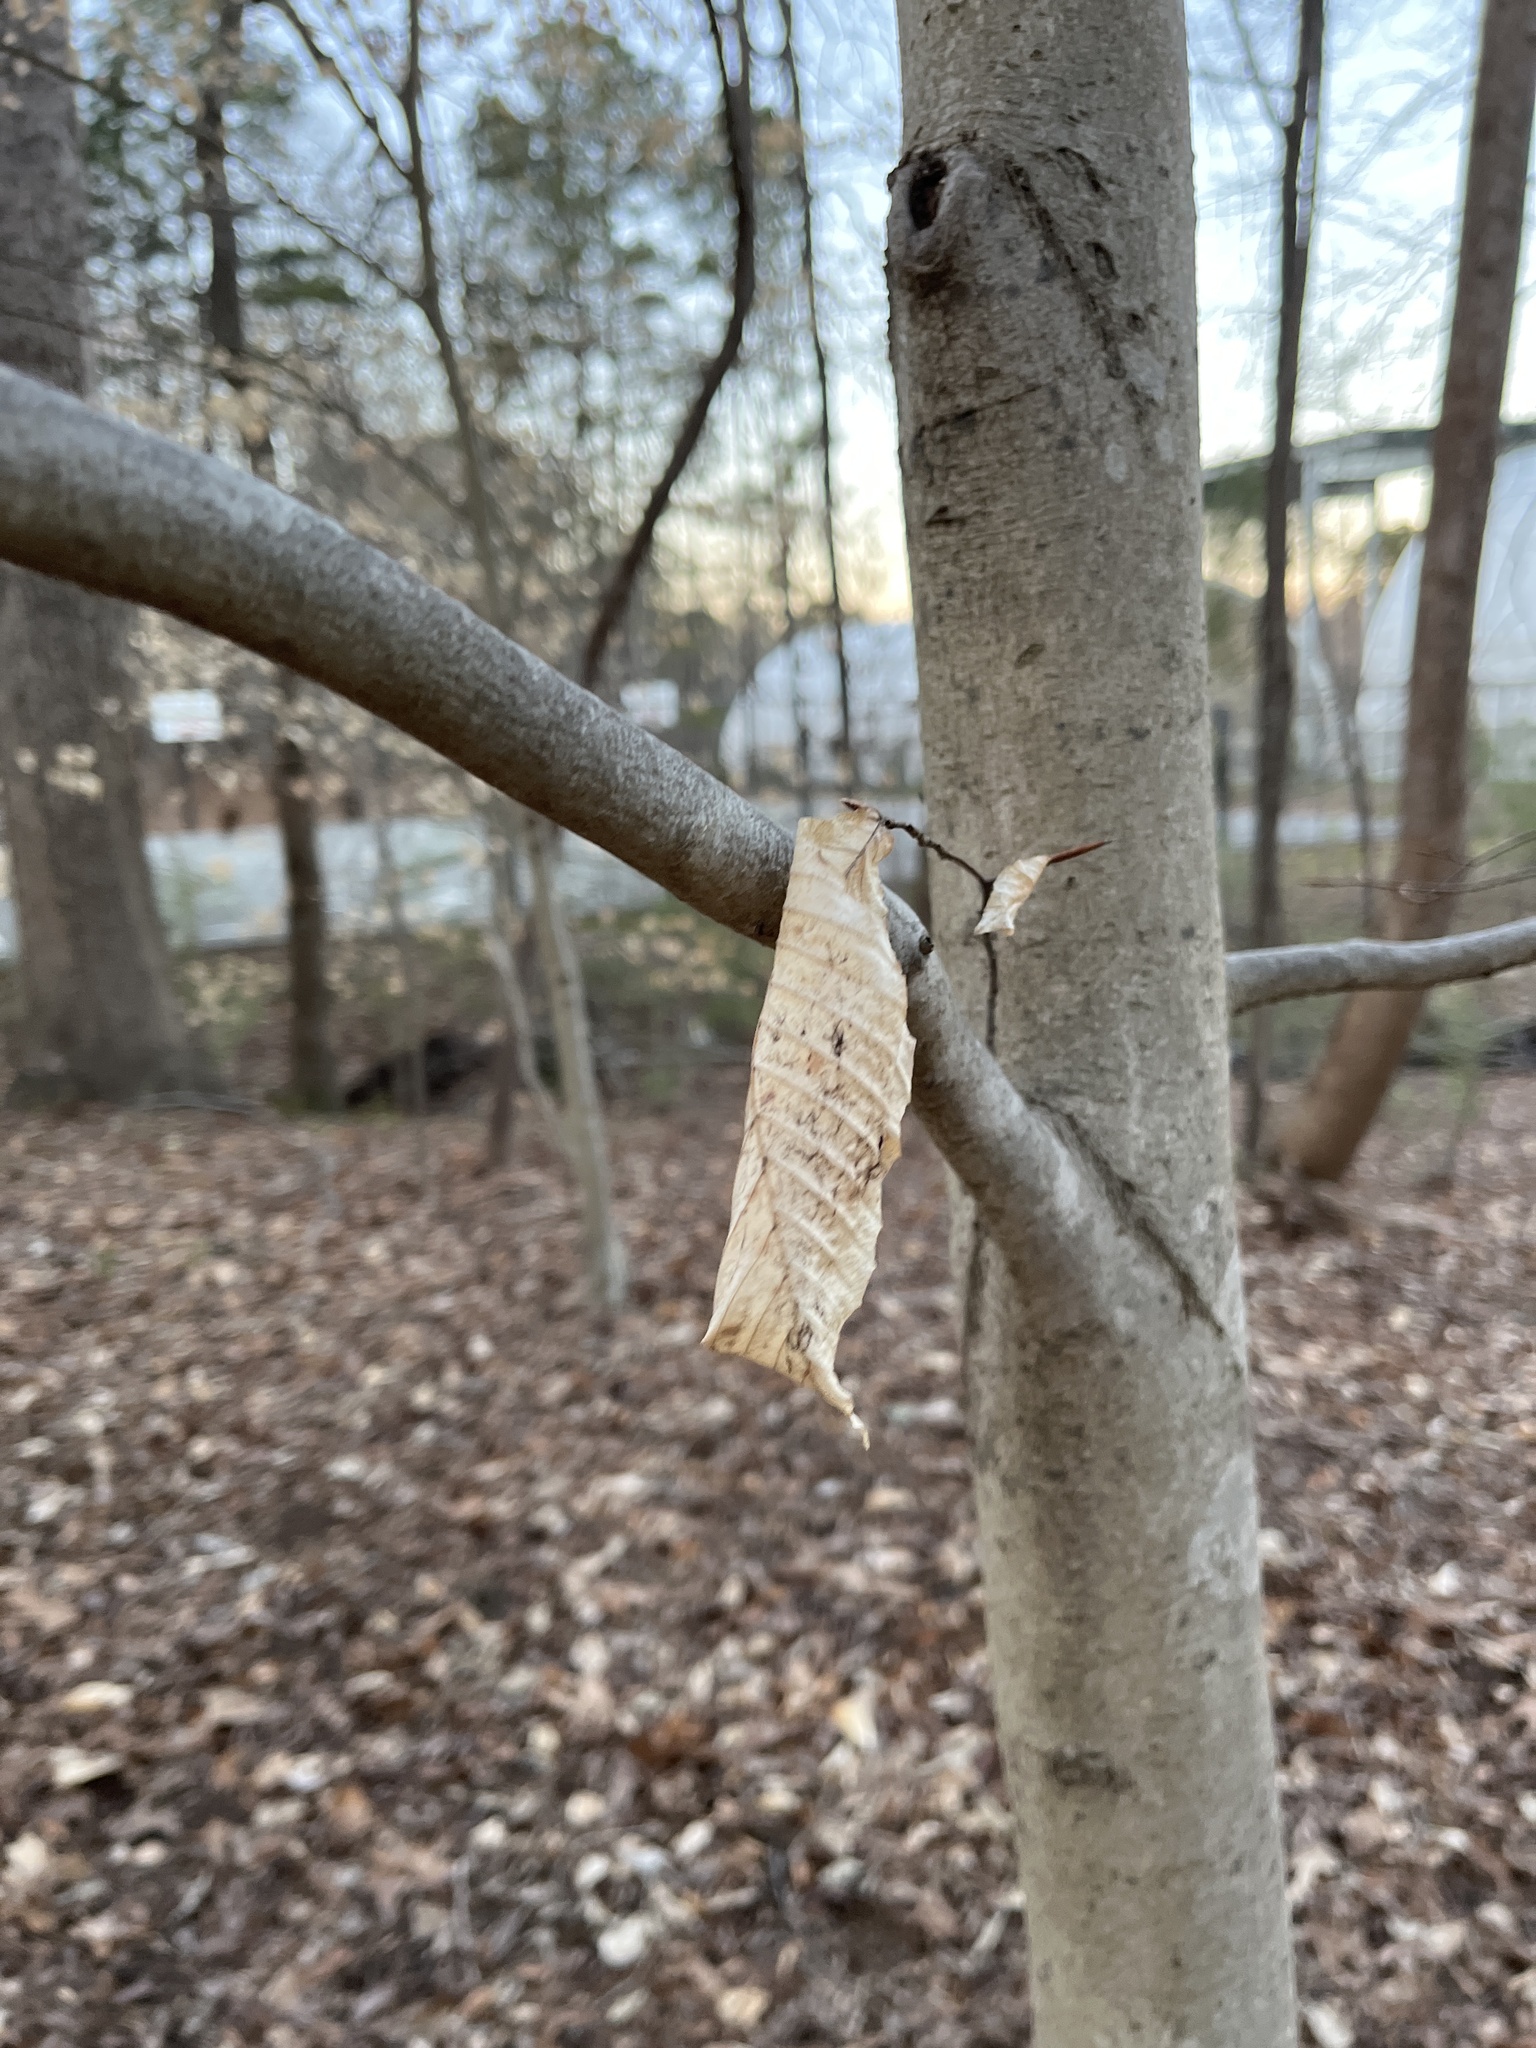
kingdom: Plantae
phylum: Tracheophyta
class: Magnoliopsida
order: Fagales
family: Fagaceae
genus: Fagus
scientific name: Fagus grandifolia
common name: American beech
